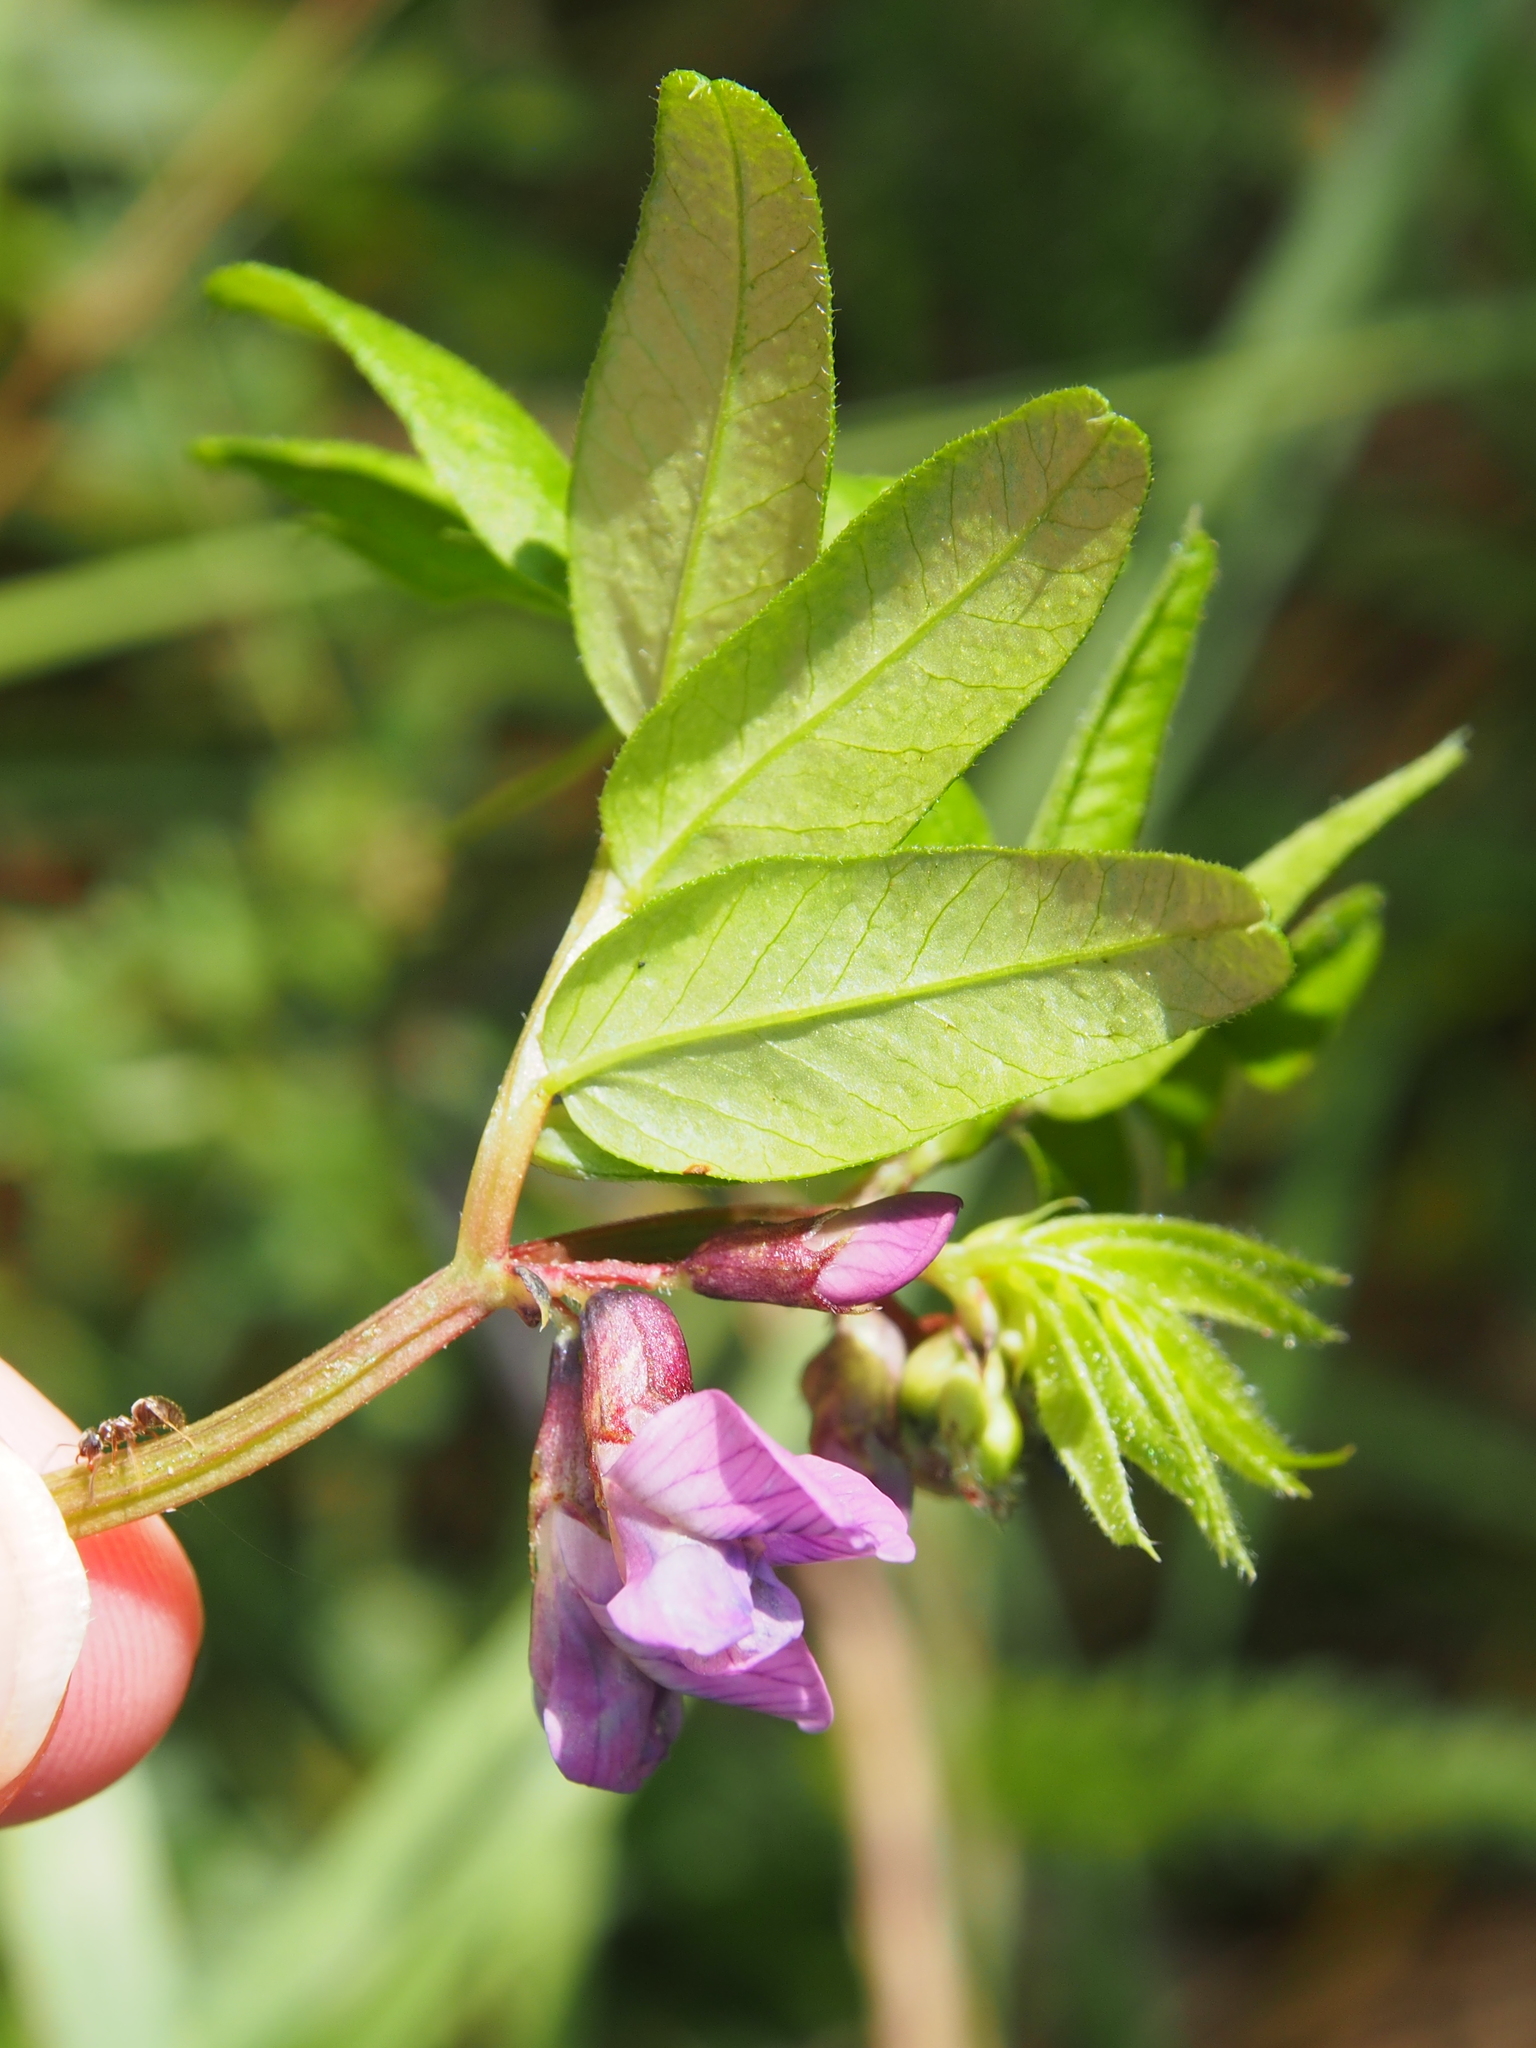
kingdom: Plantae
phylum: Tracheophyta
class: Magnoliopsida
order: Fabales
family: Fabaceae
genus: Vicia
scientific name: Vicia sepium
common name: Bush vetch
